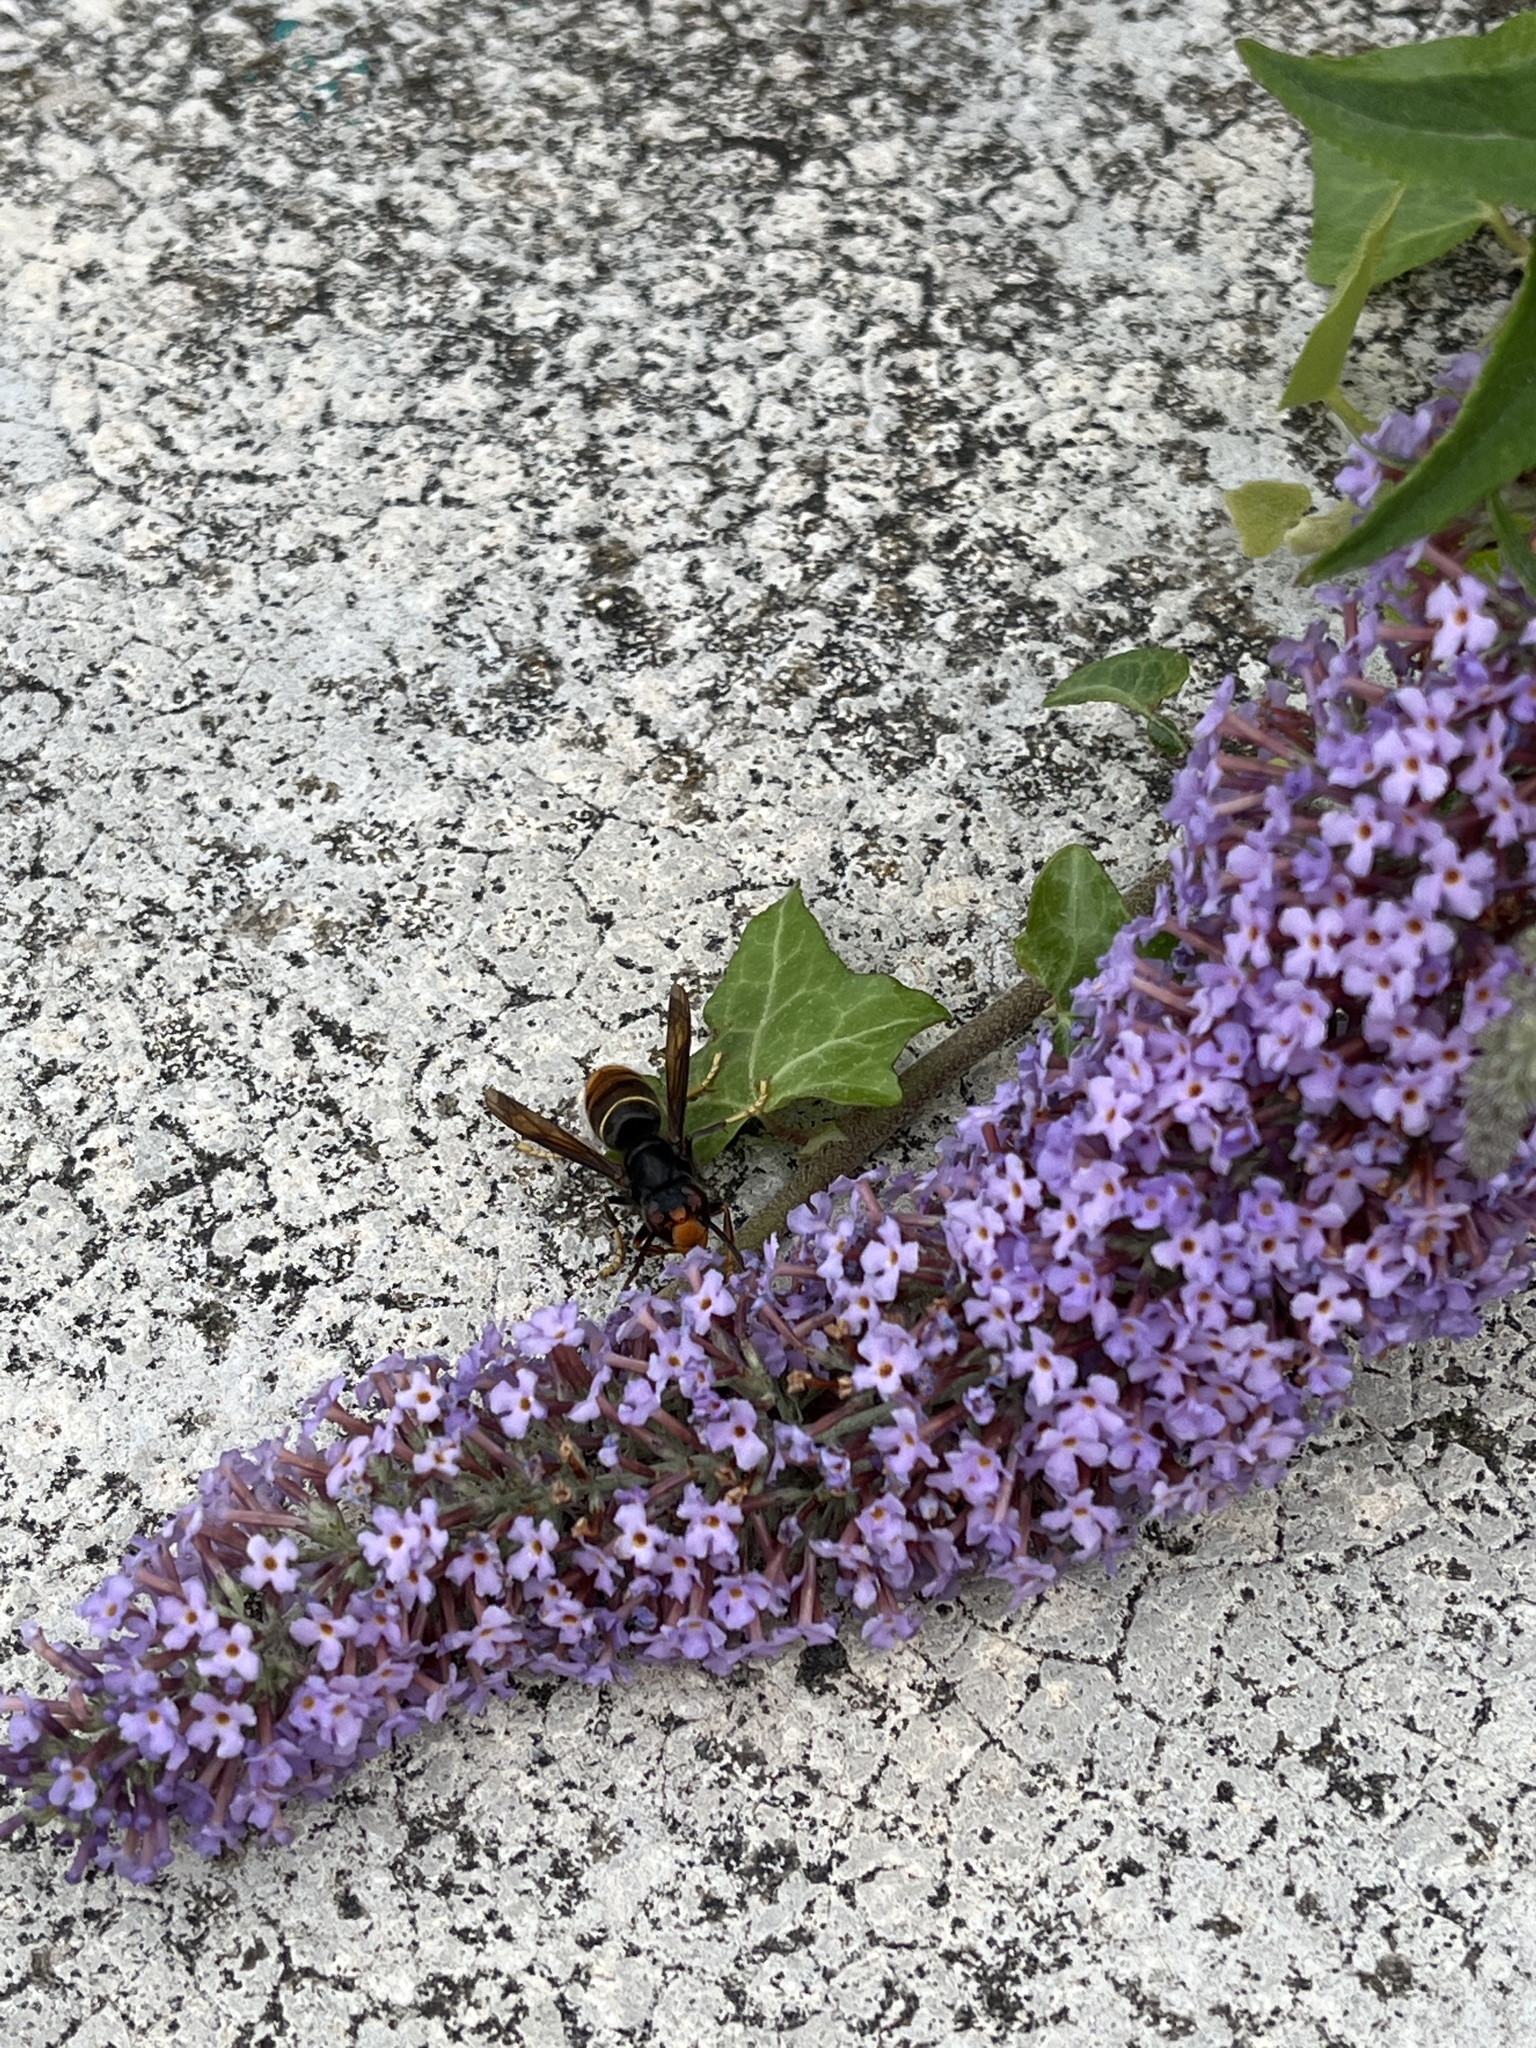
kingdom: Animalia
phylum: Arthropoda
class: Insecta
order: Hymenoptera
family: Vespidae
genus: Vespa
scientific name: Vespa velutina
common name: Asian hornet
